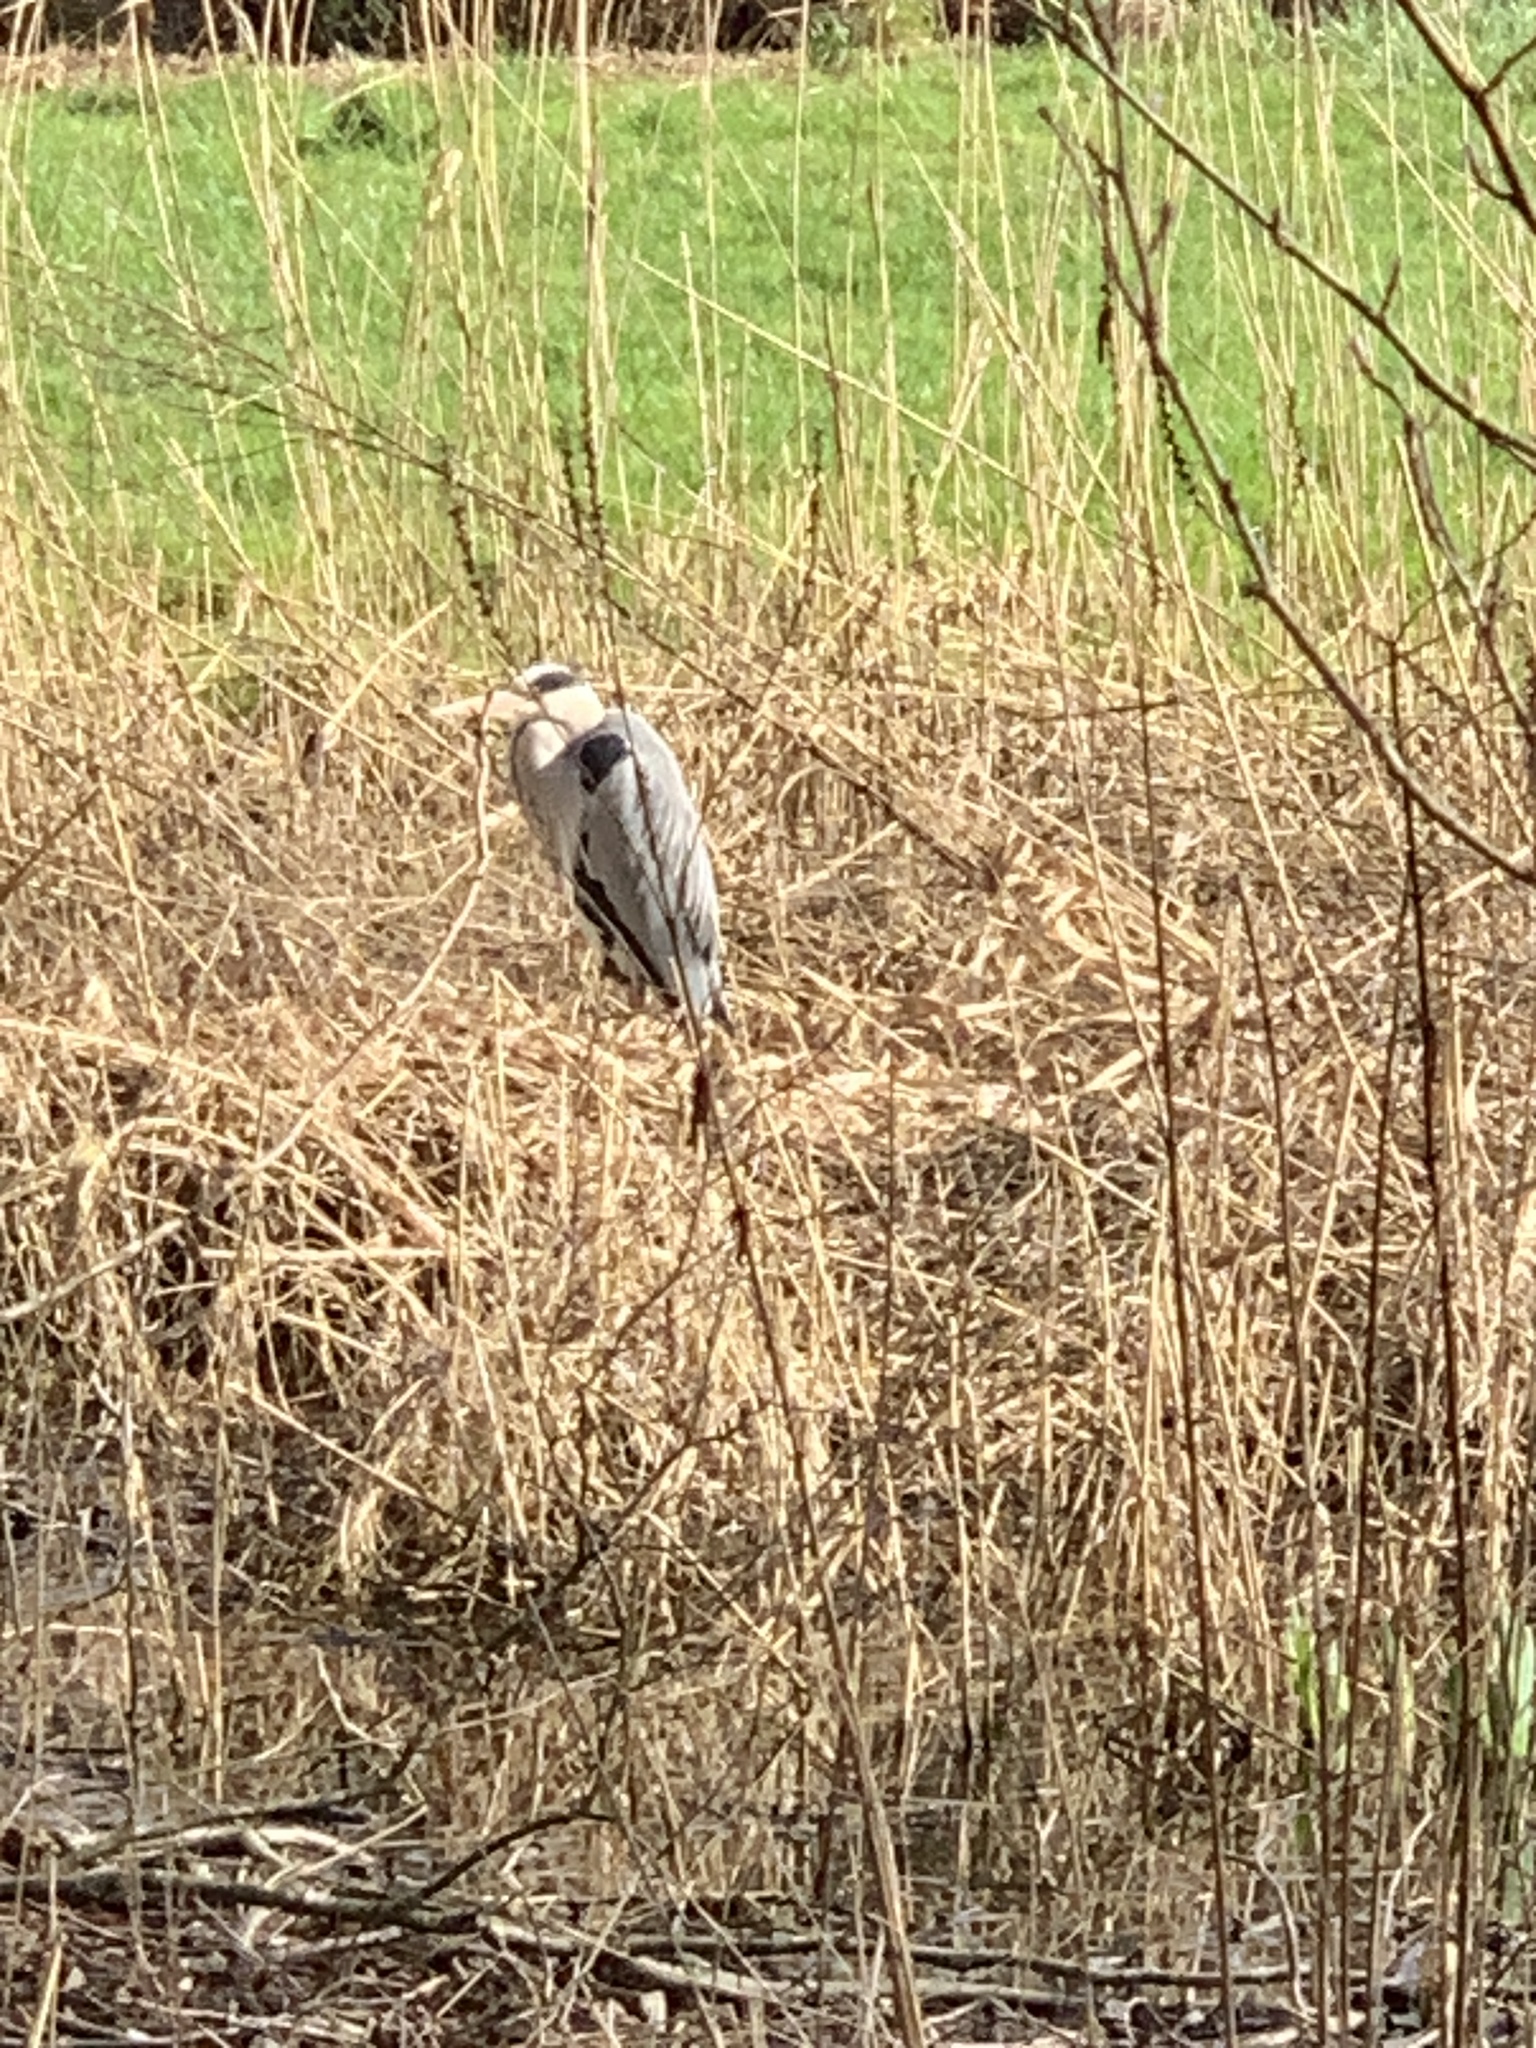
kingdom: Animalia
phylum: Chordata
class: Aves
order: Pelecaniformes
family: Ardeidae
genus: Ardea
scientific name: Ardea cinerea
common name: Grey heron
